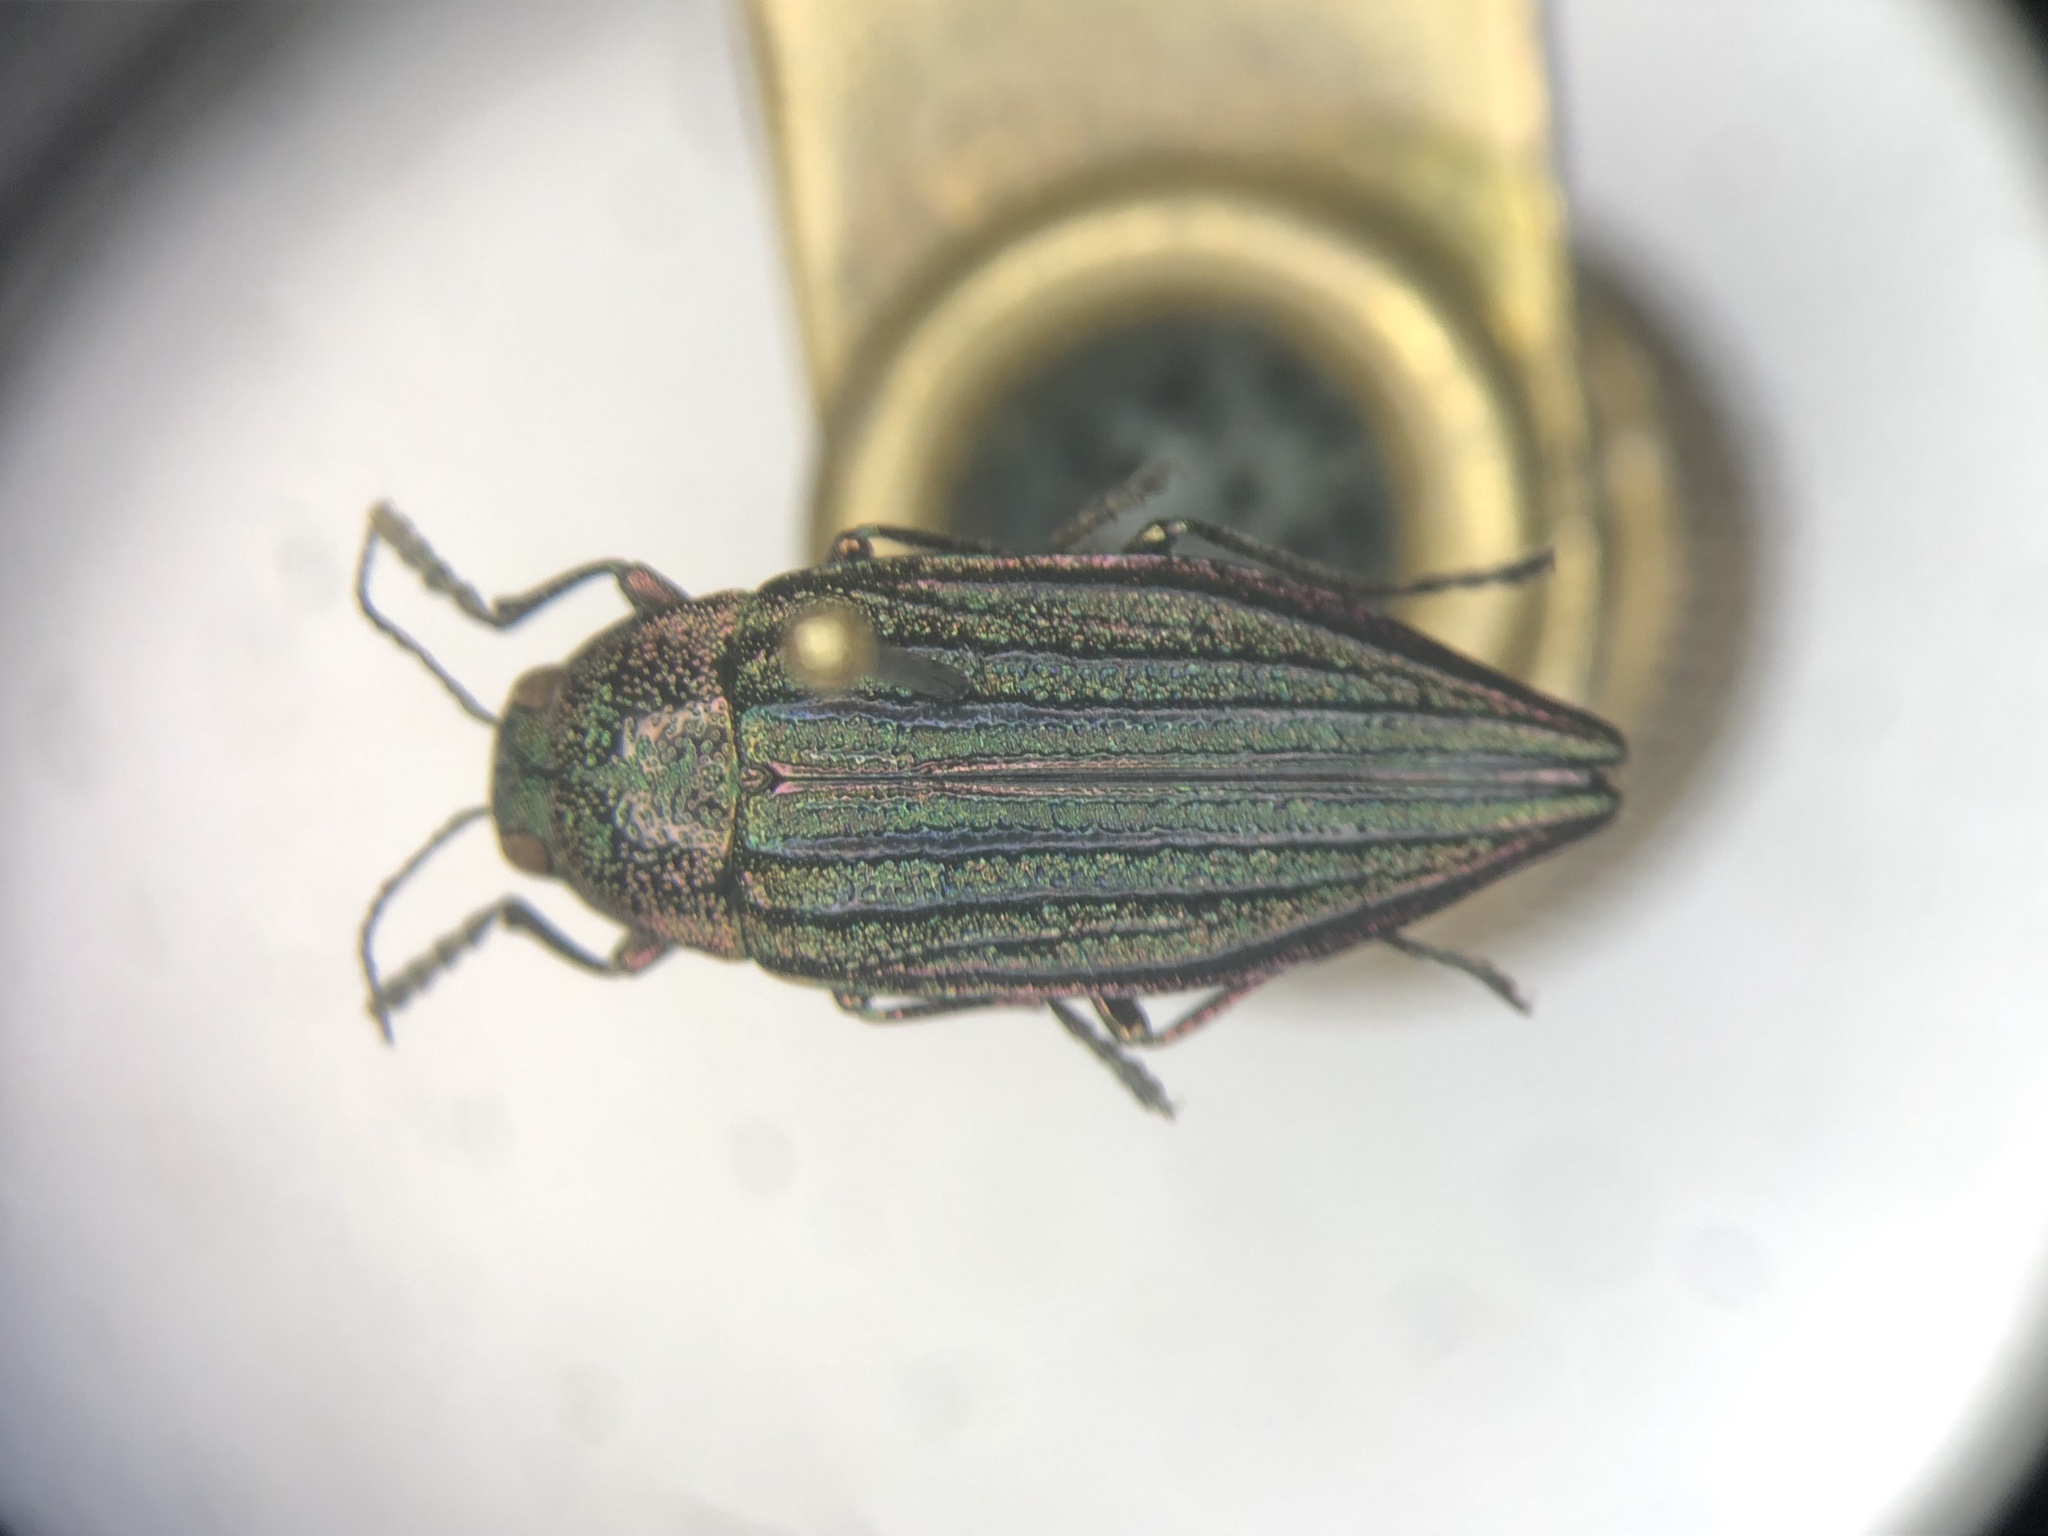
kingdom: Animalia
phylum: Arthropoda
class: Insecta
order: Coleoptera
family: Buprestidae
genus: Buprestis
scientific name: Buprestis sulcicollis
